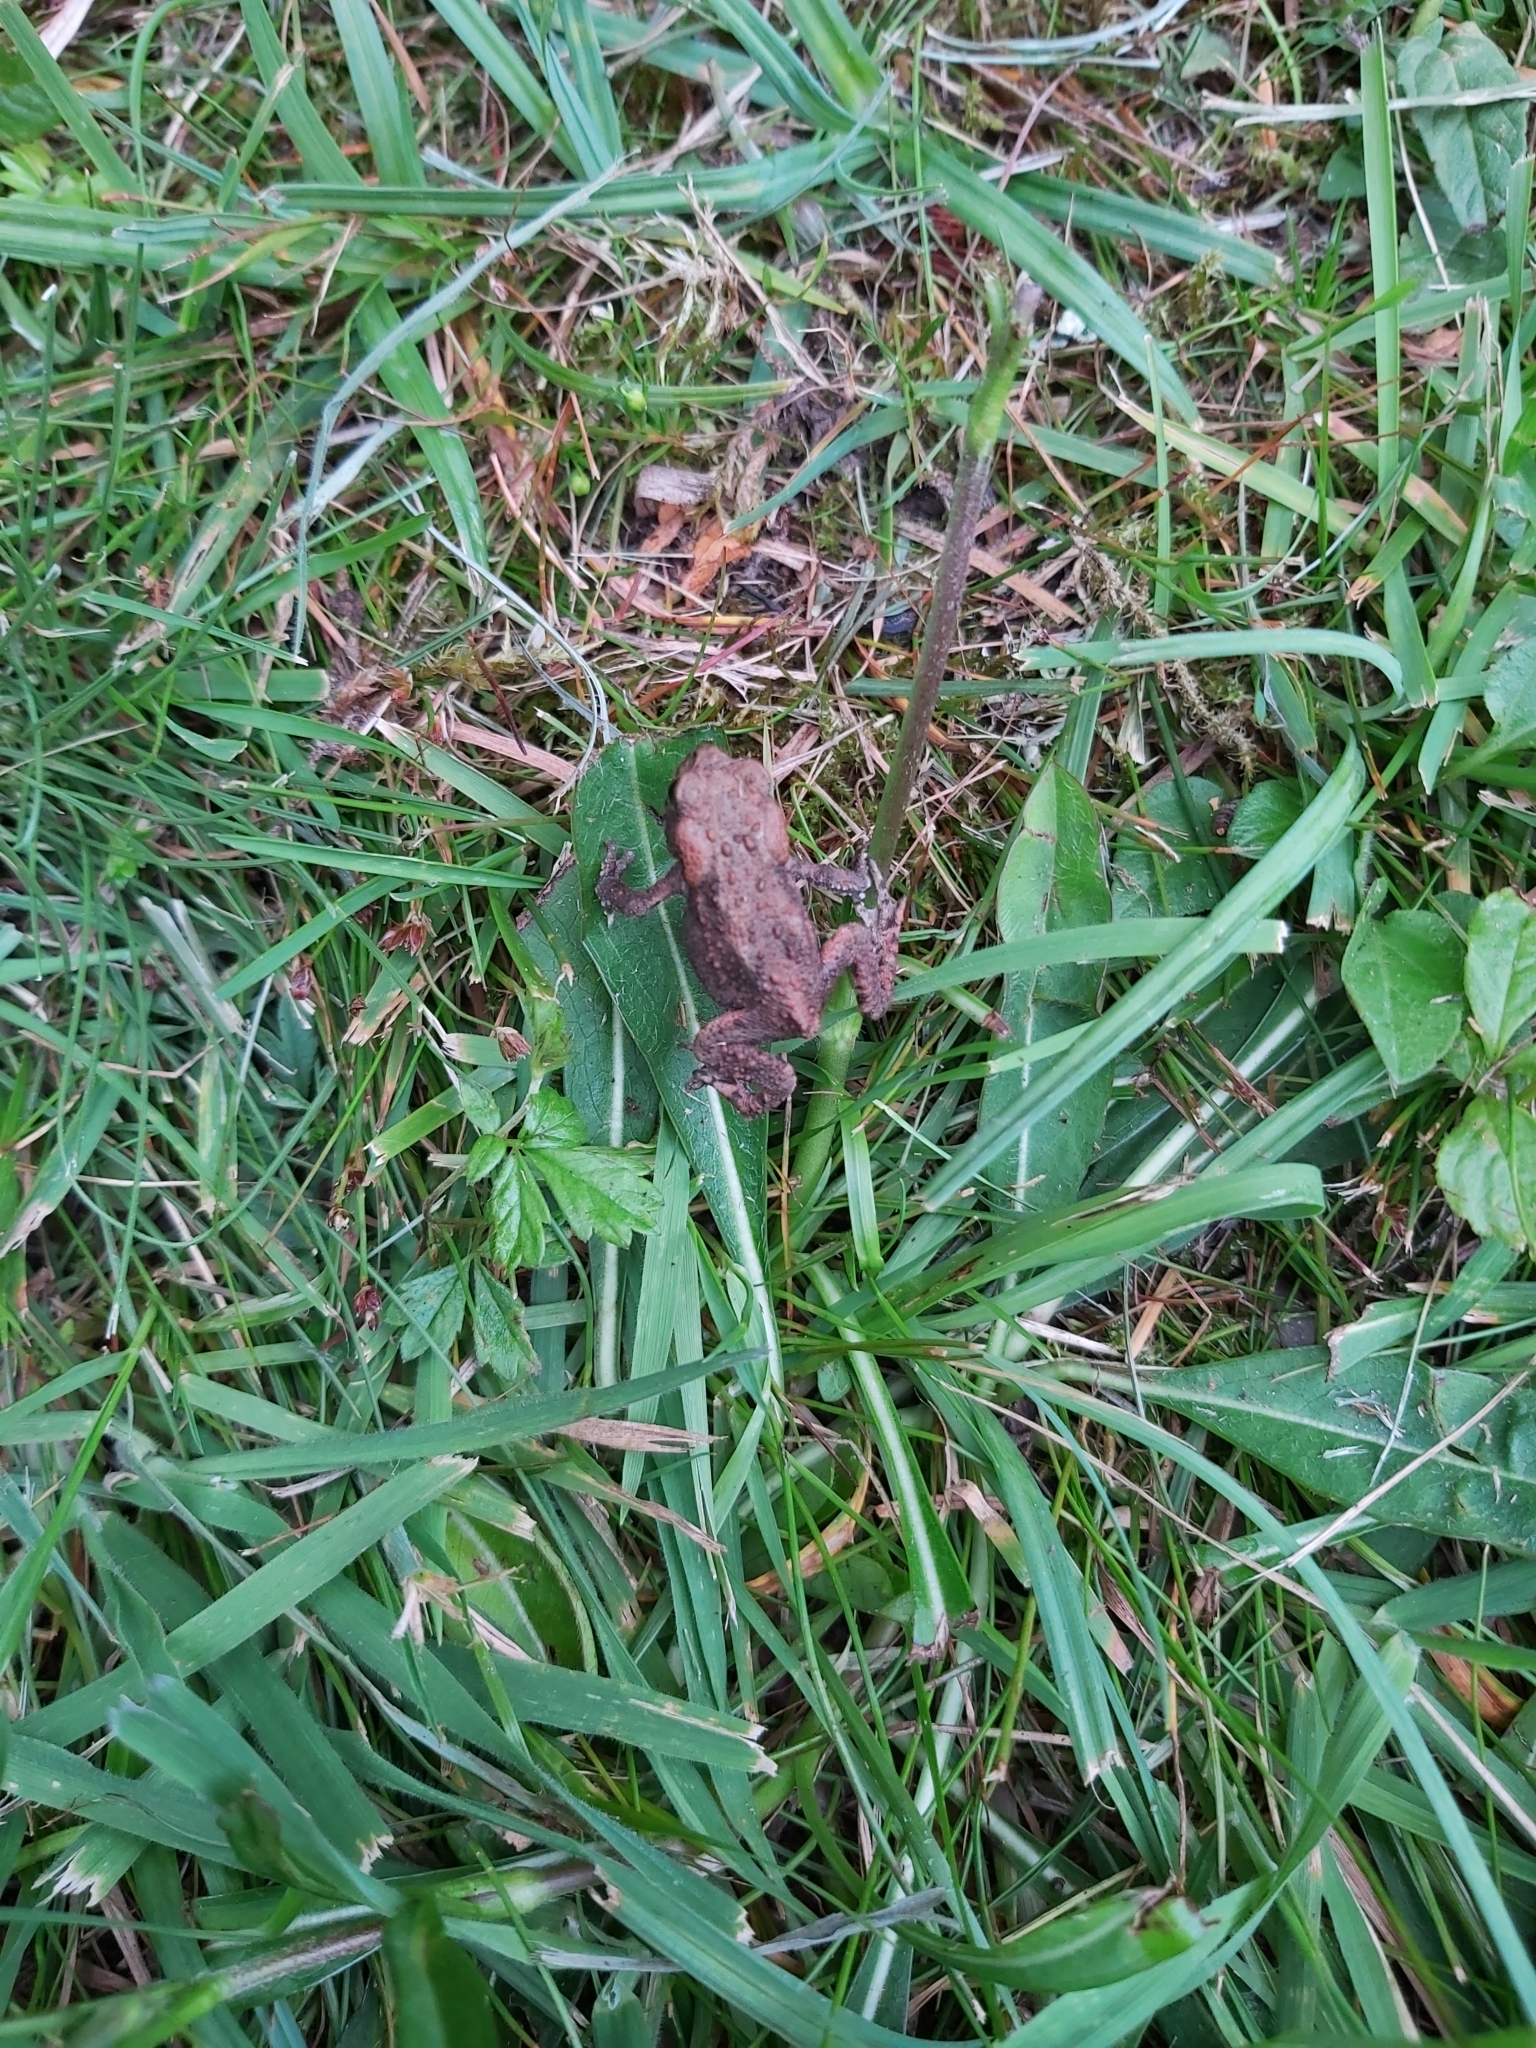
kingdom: Animalia
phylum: Chordata
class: Amphibia
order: Anura
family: Bufonidae
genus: Bufo
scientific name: Bufo bufo
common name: Common toad
